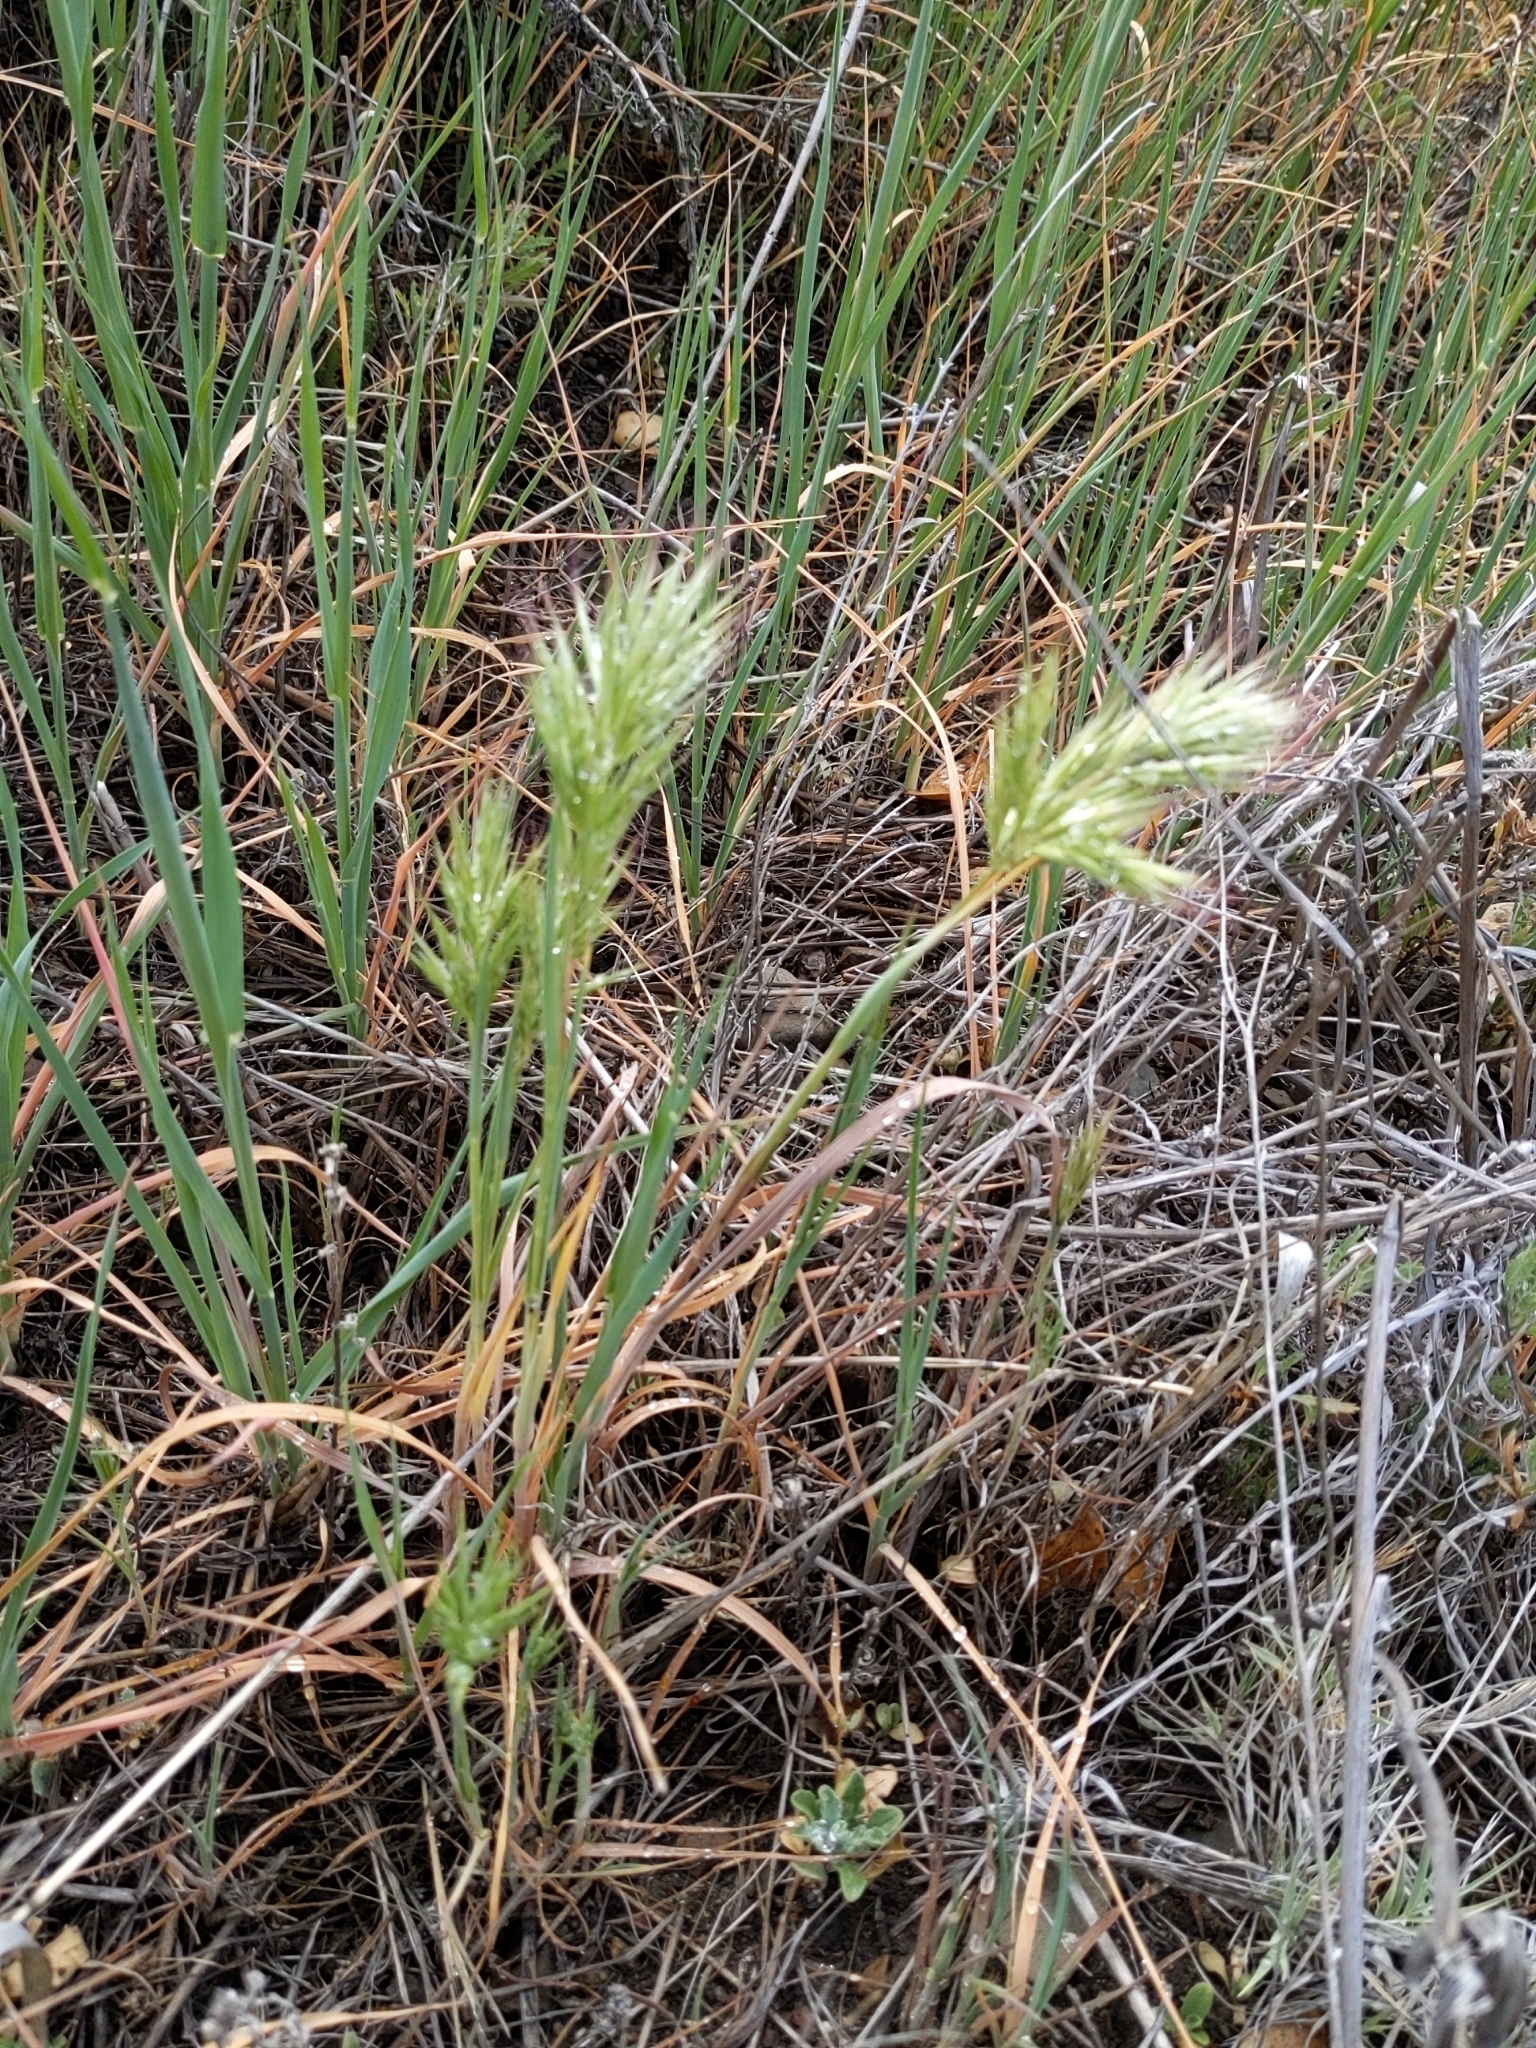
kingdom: Plantae
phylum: Tracheophyta
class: Liliopsida
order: Poales
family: Poaceae
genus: Bromus
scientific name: Bromus rubens
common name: Red brome
